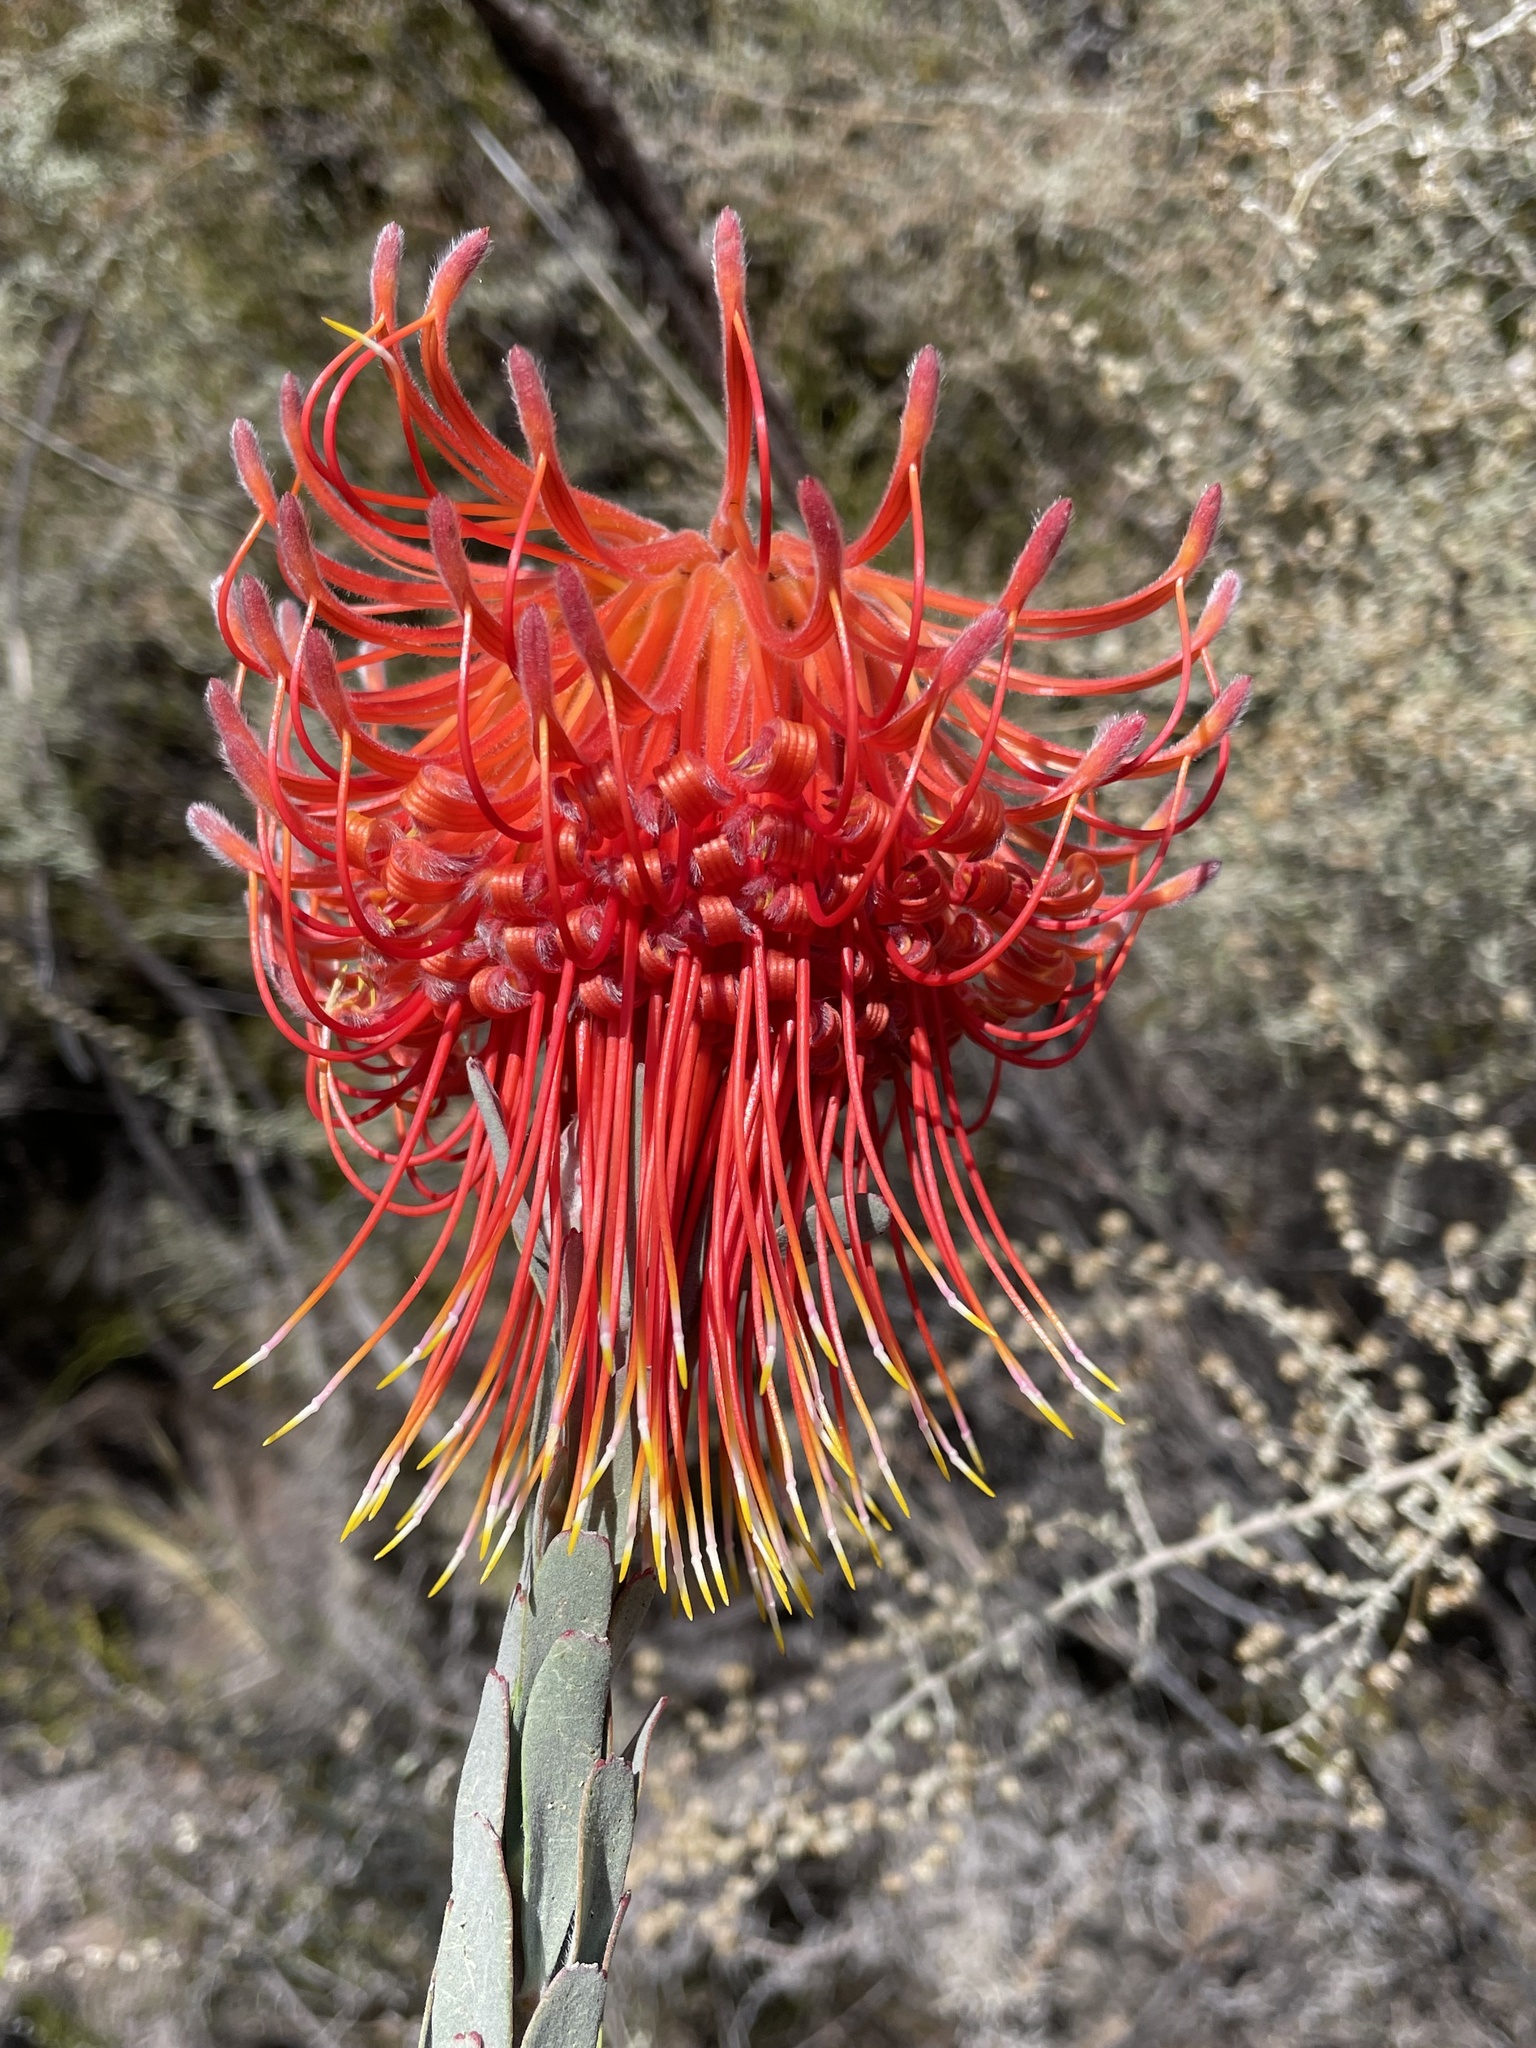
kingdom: Plantae
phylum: Tracheophyta
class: Magnoliopsida
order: Proteales
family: Proteaceae
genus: Leucospermum
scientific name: Leucospermum reflexum
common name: Rocket pincushion
